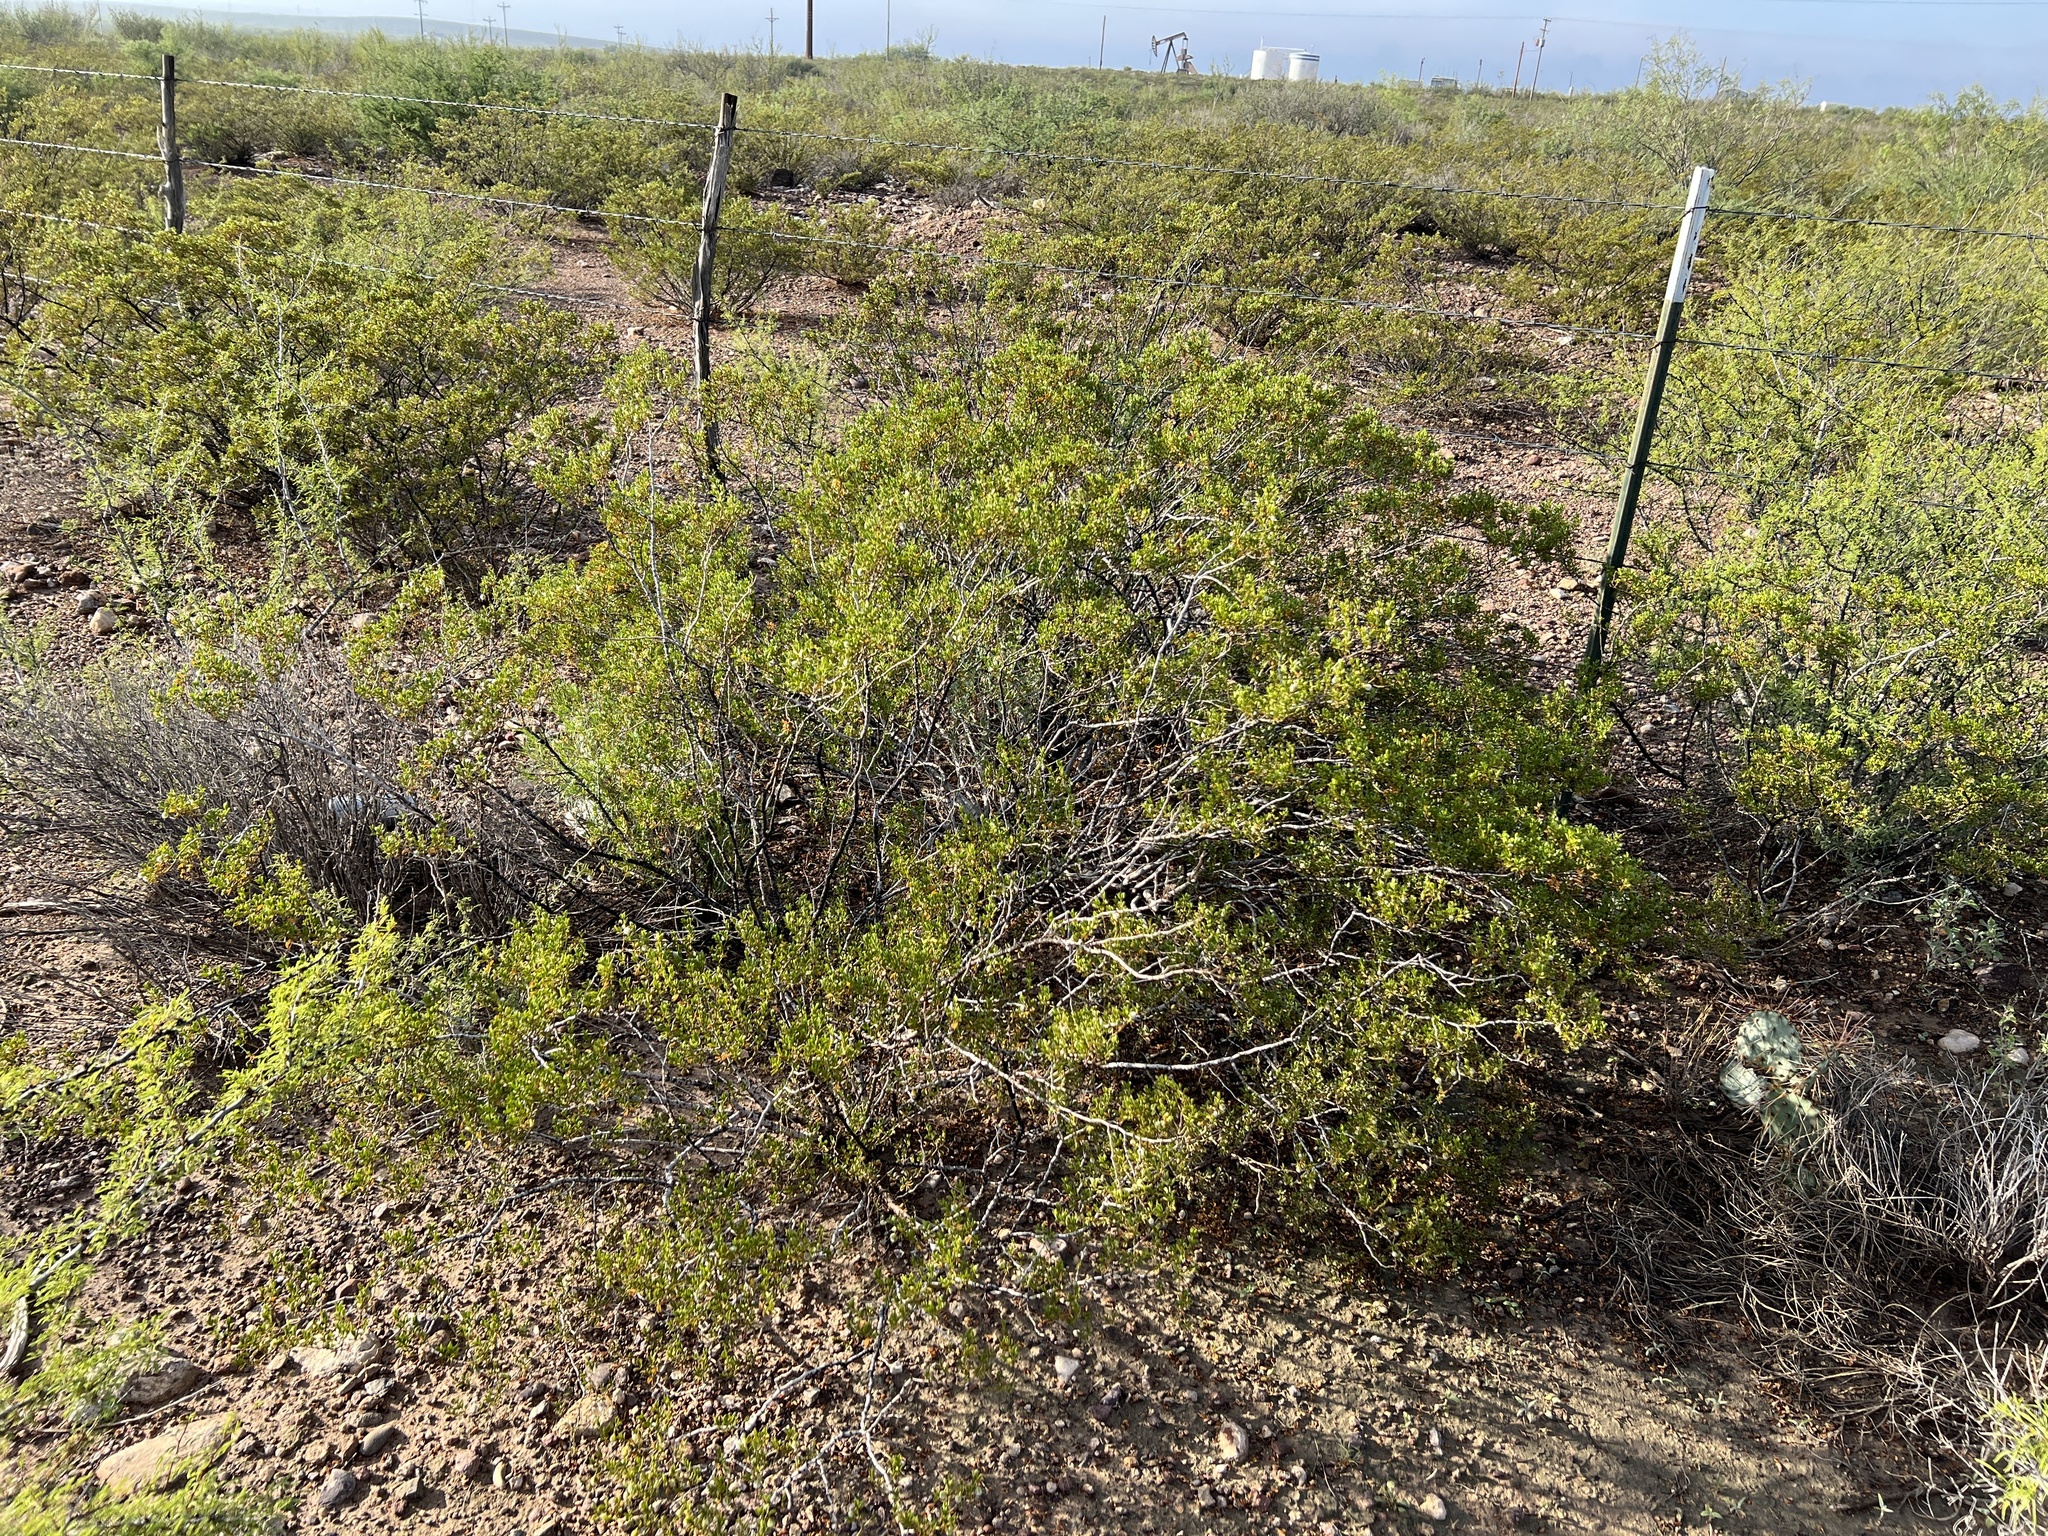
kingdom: Plantae
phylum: Tracheophyta
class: Magnoliopsida
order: Zygophyllales
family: Zygophyllaceae
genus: Larrea
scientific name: Larrea tridentata
